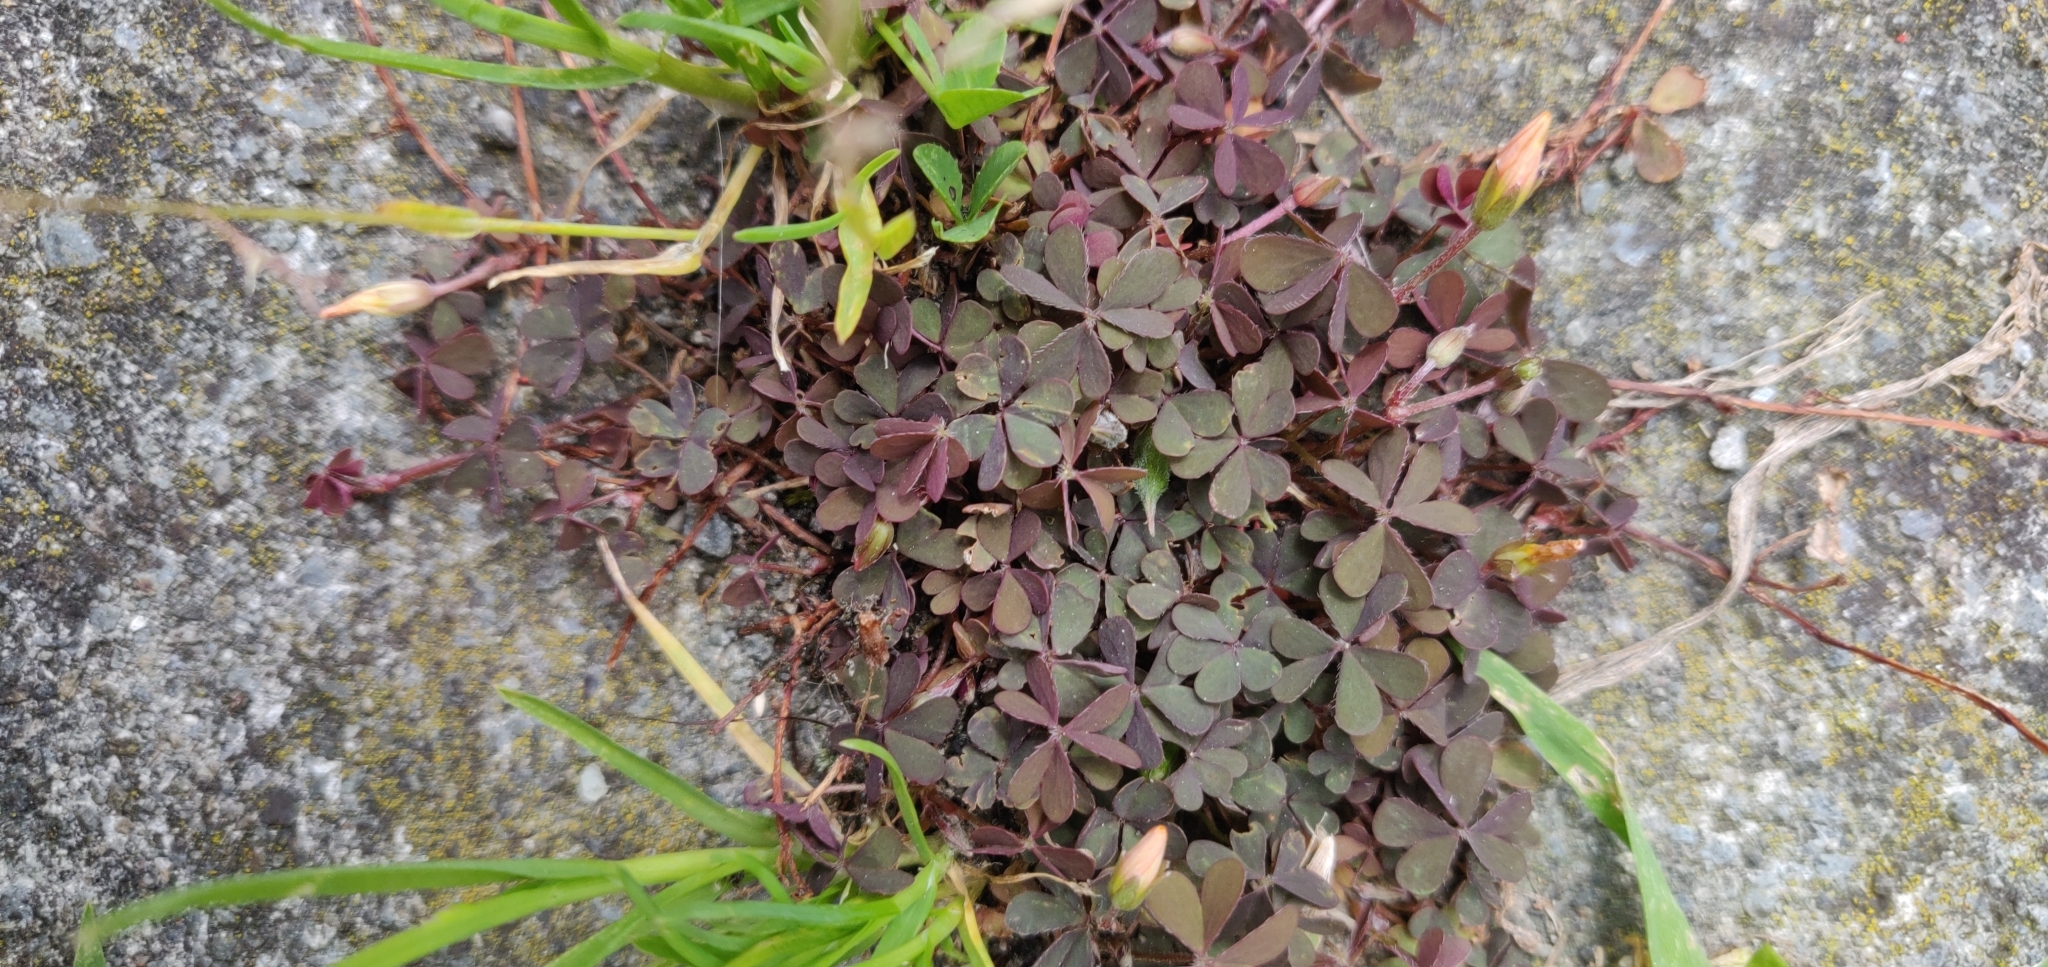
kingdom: Plantae
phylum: Tracheophyta
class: Magnoliopsida
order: Oxalidales
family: Oxalidaceae
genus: Oxalis
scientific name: Oxalis corniculata
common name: Procumbent yellow-sorrel
